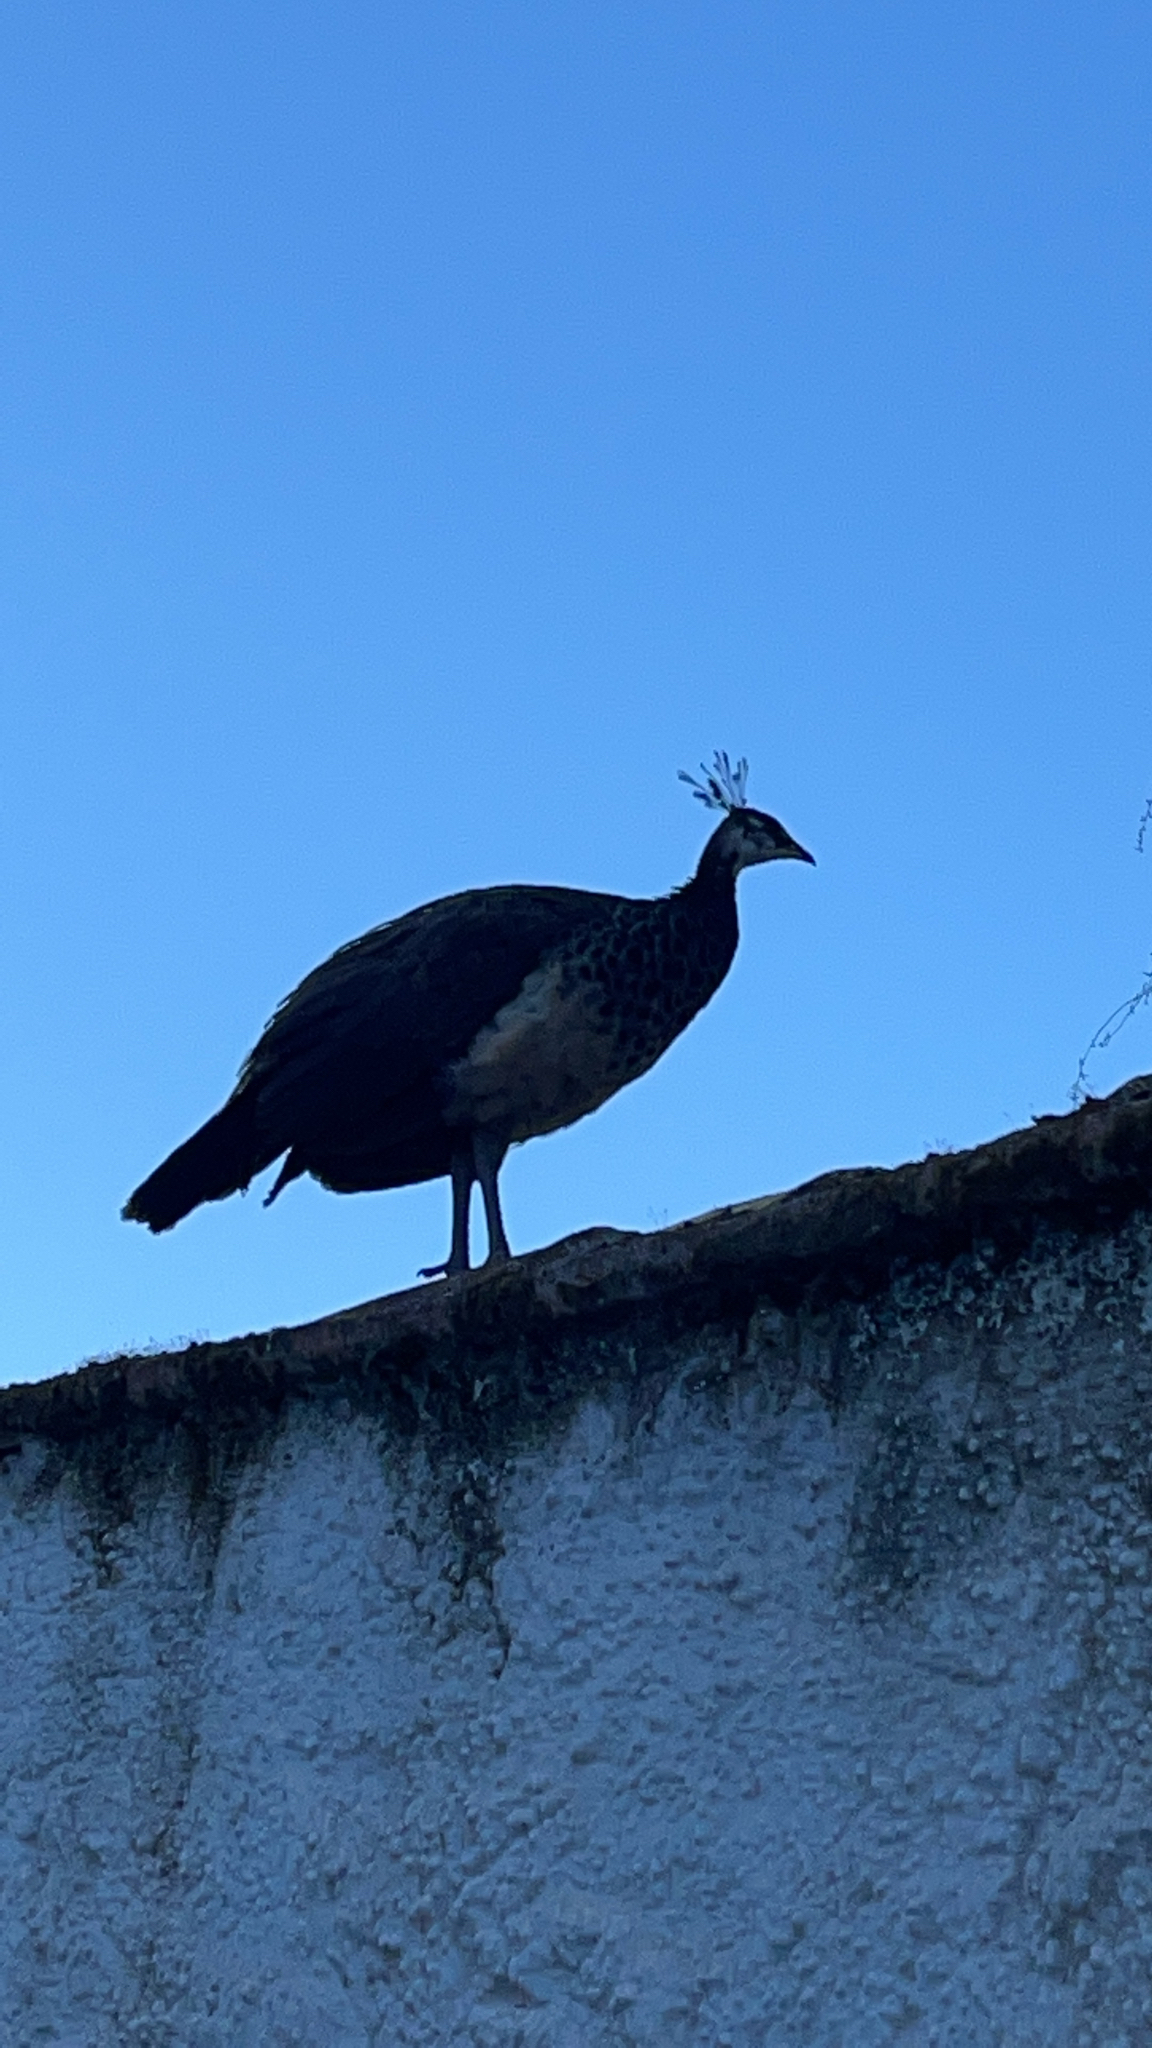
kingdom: Animalia
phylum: Chordata
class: Aves
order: Galliformes
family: Phasianidae
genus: Pavo
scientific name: Pavo cristatus
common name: Indian peafowl
